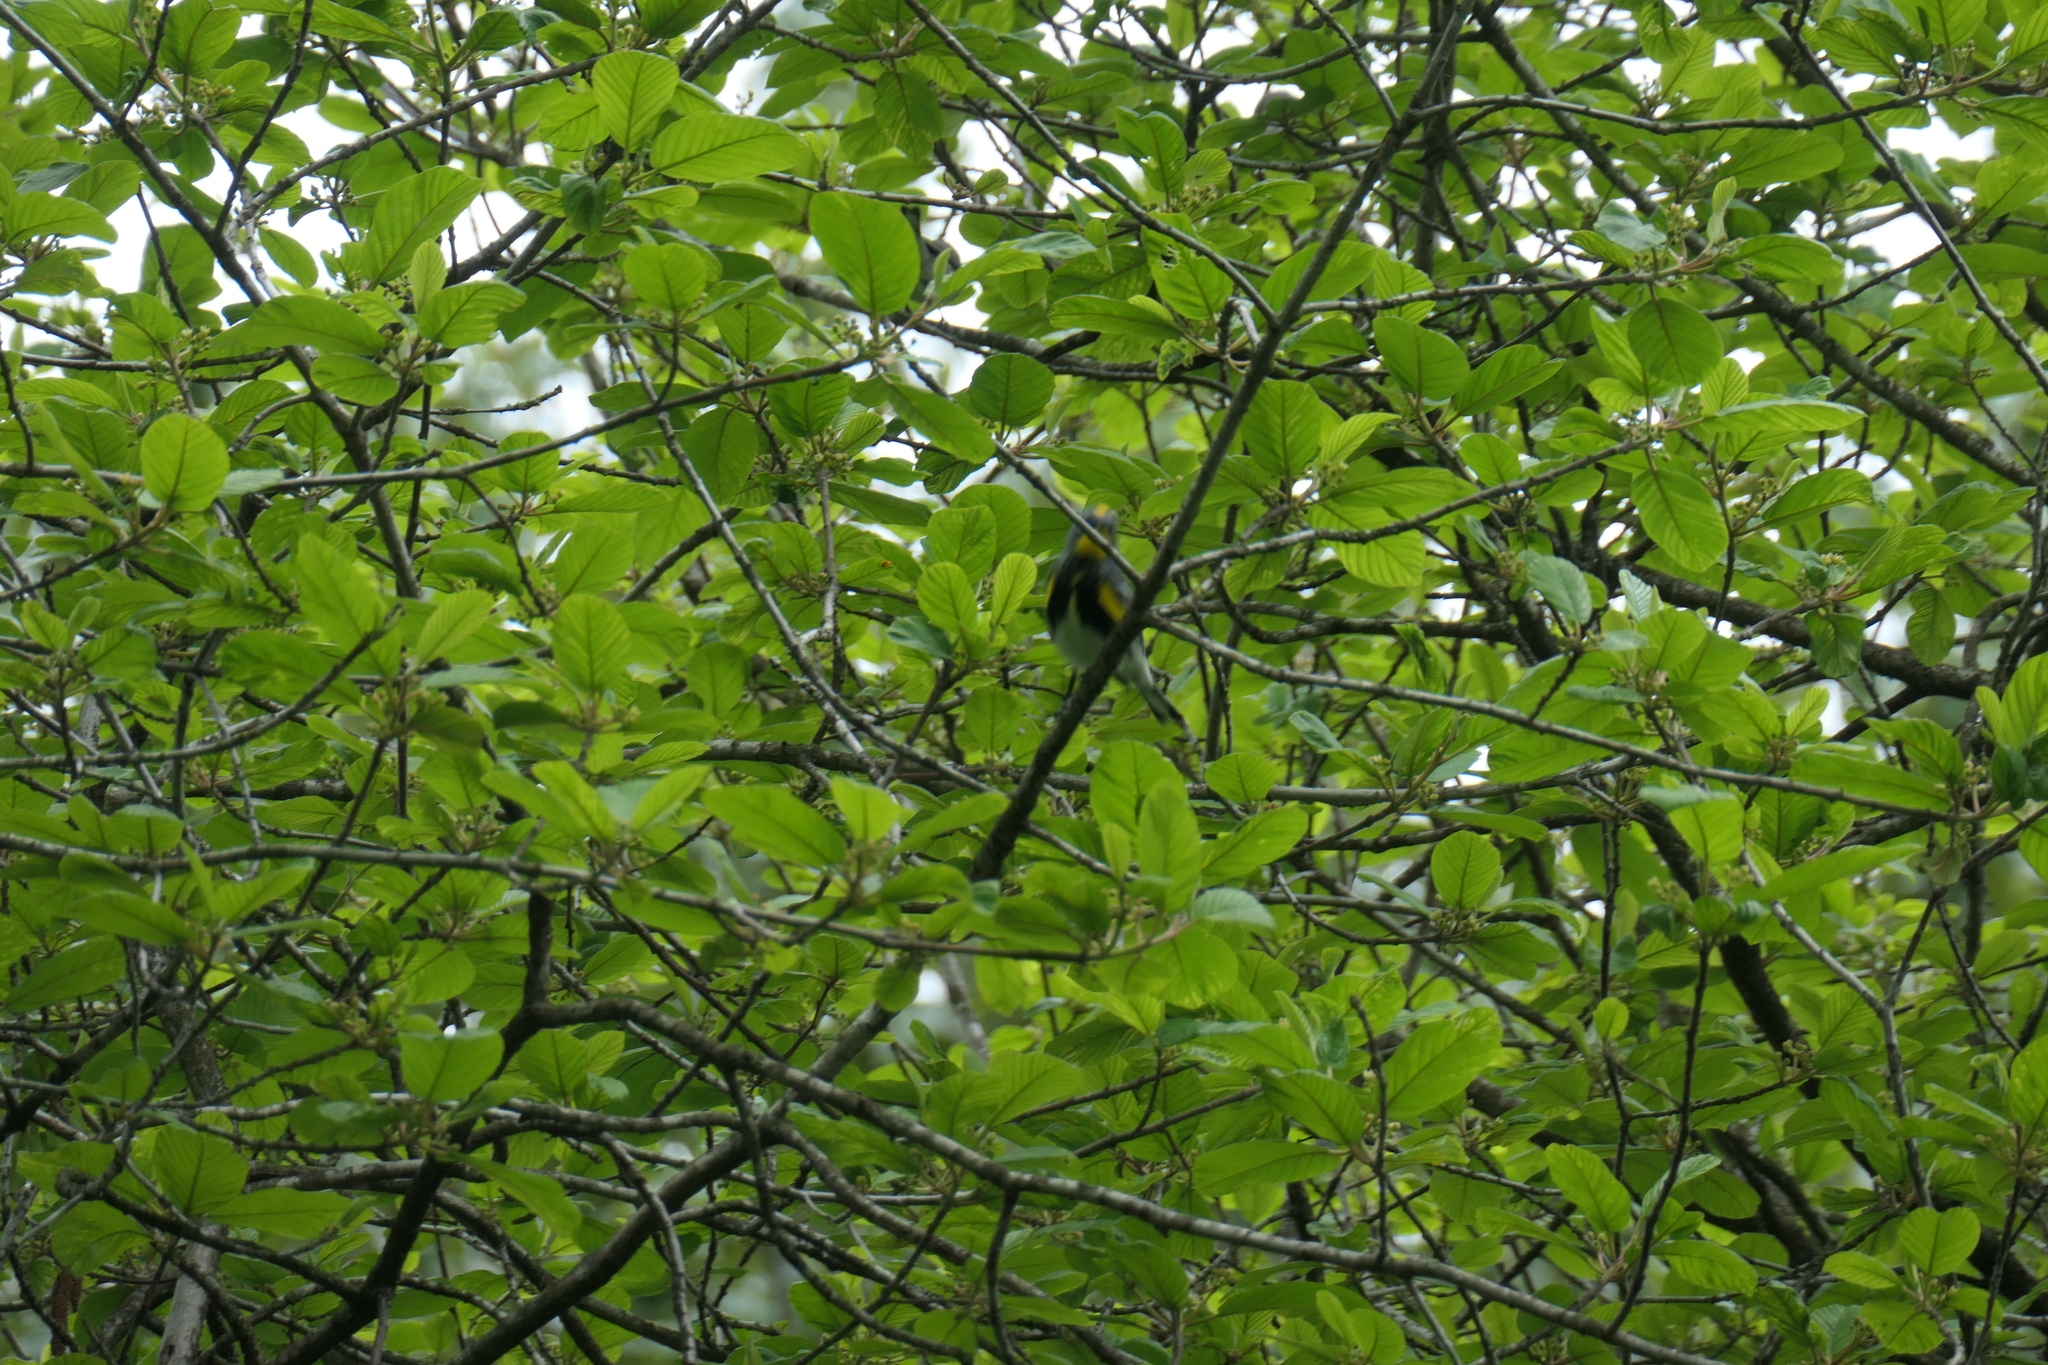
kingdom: Animalia
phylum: Chordata
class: Aves
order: Passeriformes
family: Parulidae
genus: Setophaga
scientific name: Setophaga auduboni
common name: Audubon's warbler
